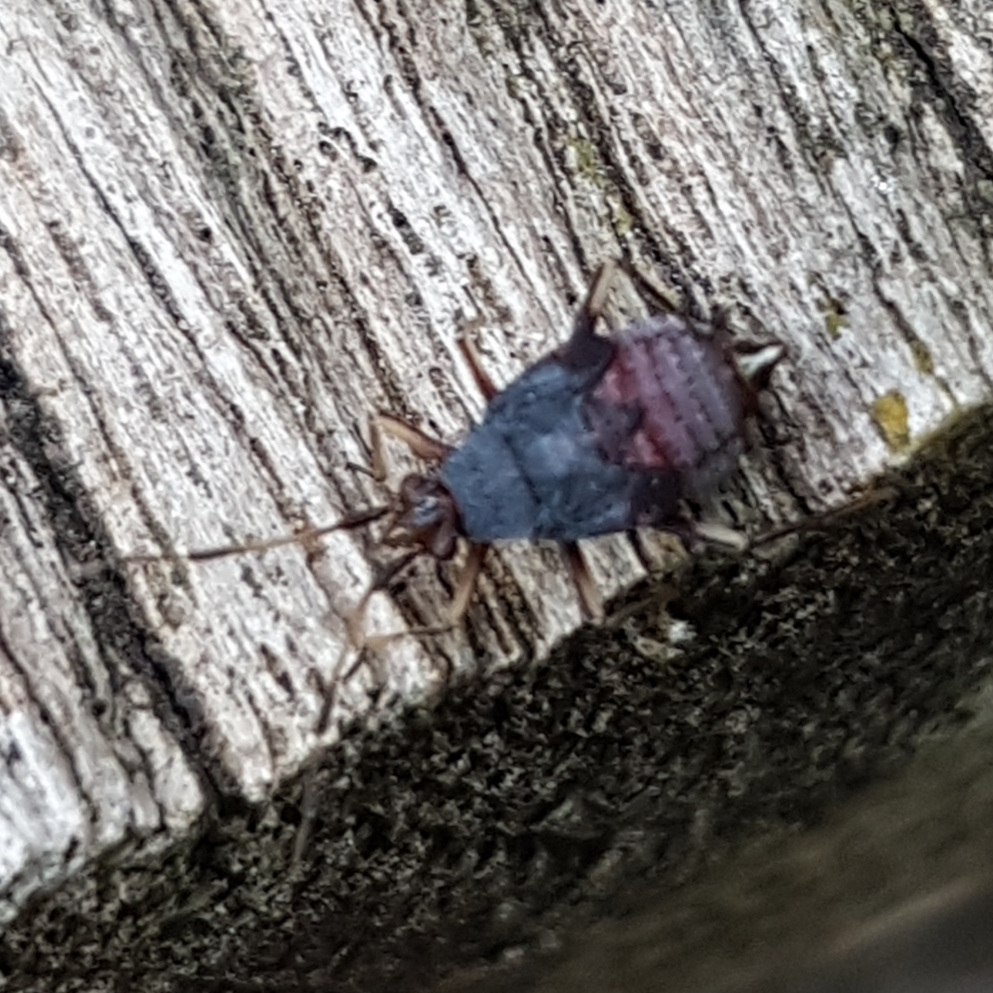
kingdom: Animalia
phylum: Arthropoda
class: Insecta
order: Hemiptera
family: Miridae
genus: Deraeocoris
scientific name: Deraeocoris ruber
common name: Plant bug
